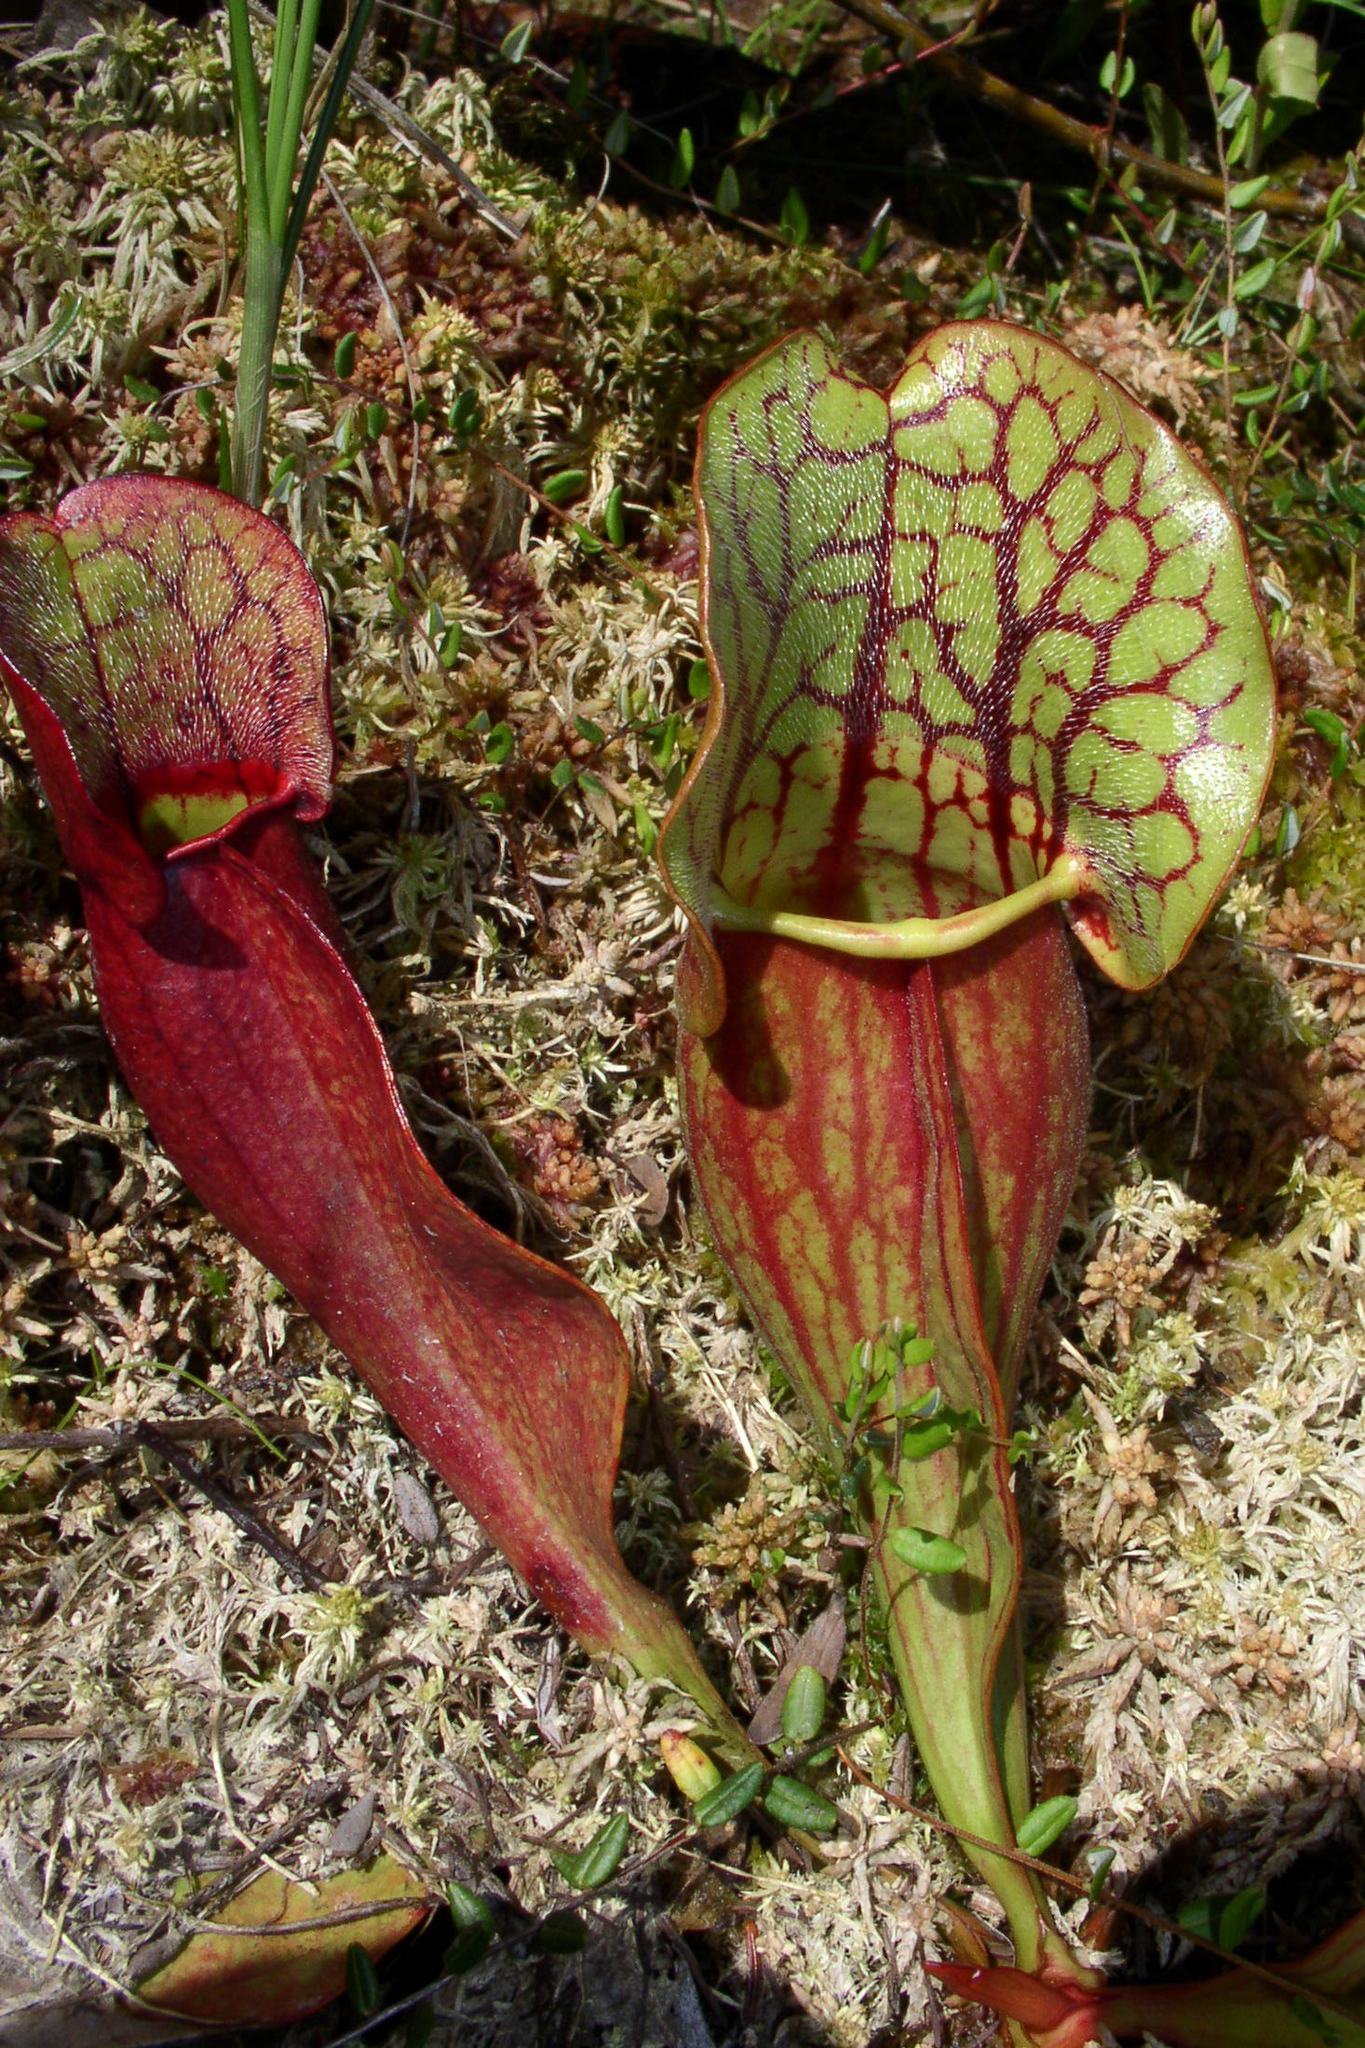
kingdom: Plantae
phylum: Tracheophyta
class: Magnoliopsida
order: Ericales
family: Sarraceniaceae
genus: Sarracenia
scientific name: Sarracenia purpurea
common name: Pitcherplant
